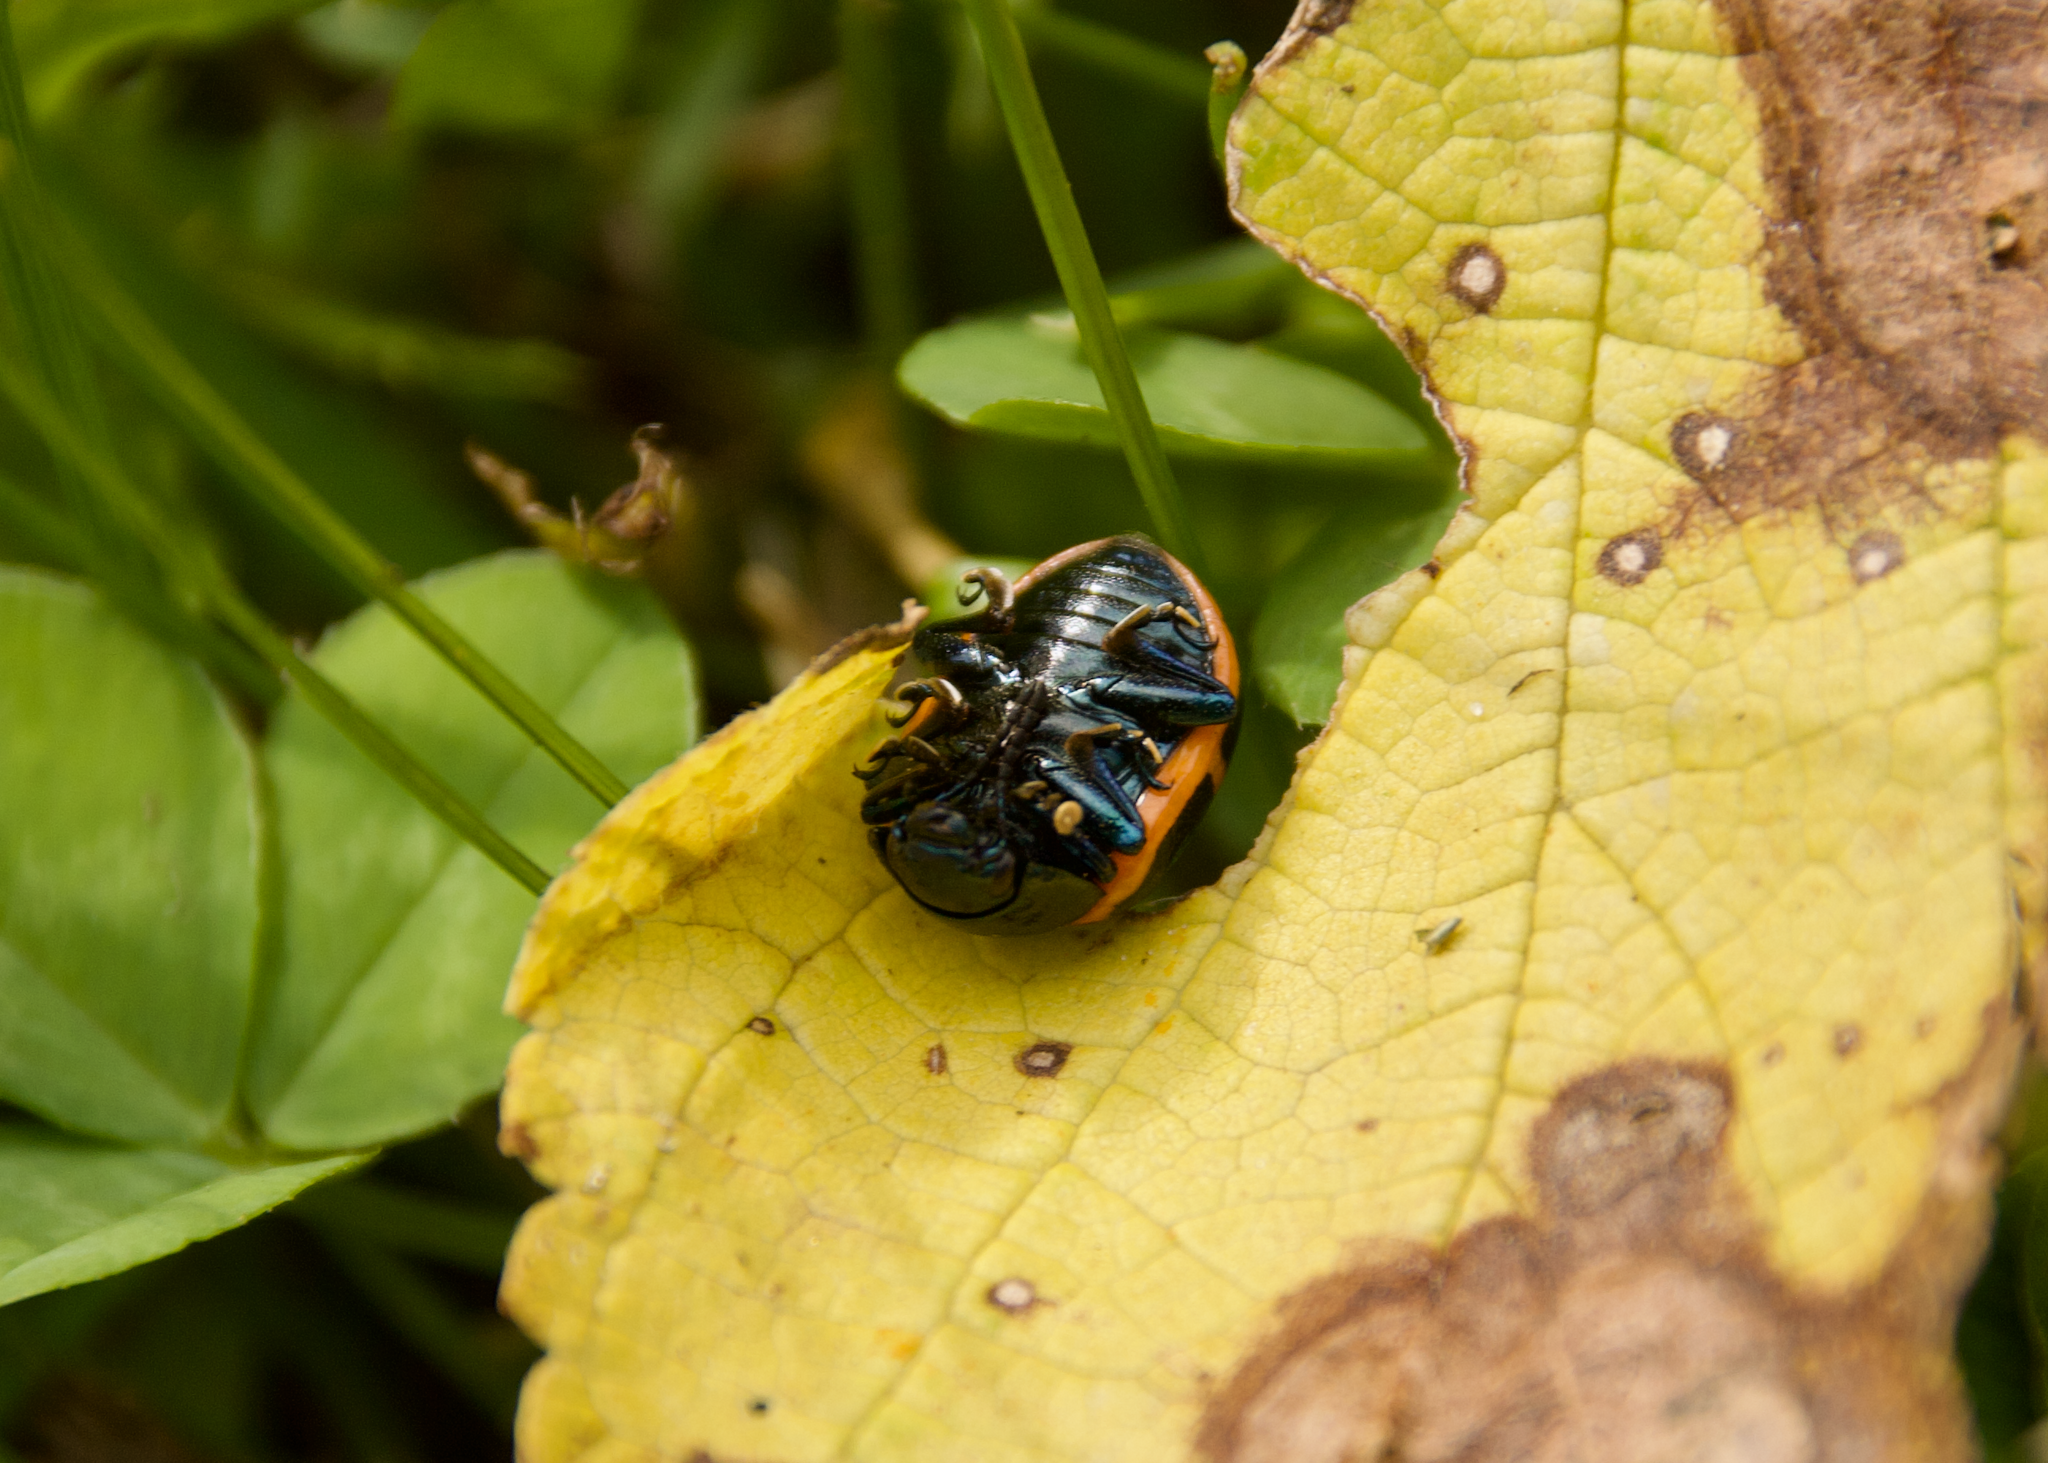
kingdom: Animalia
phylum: Arthropoda
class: Insecta
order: Coleoptera
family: Chrysomelidae
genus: Labidomera
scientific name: Labidomera clivicollis
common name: Swamp milkweed leaf beetle
